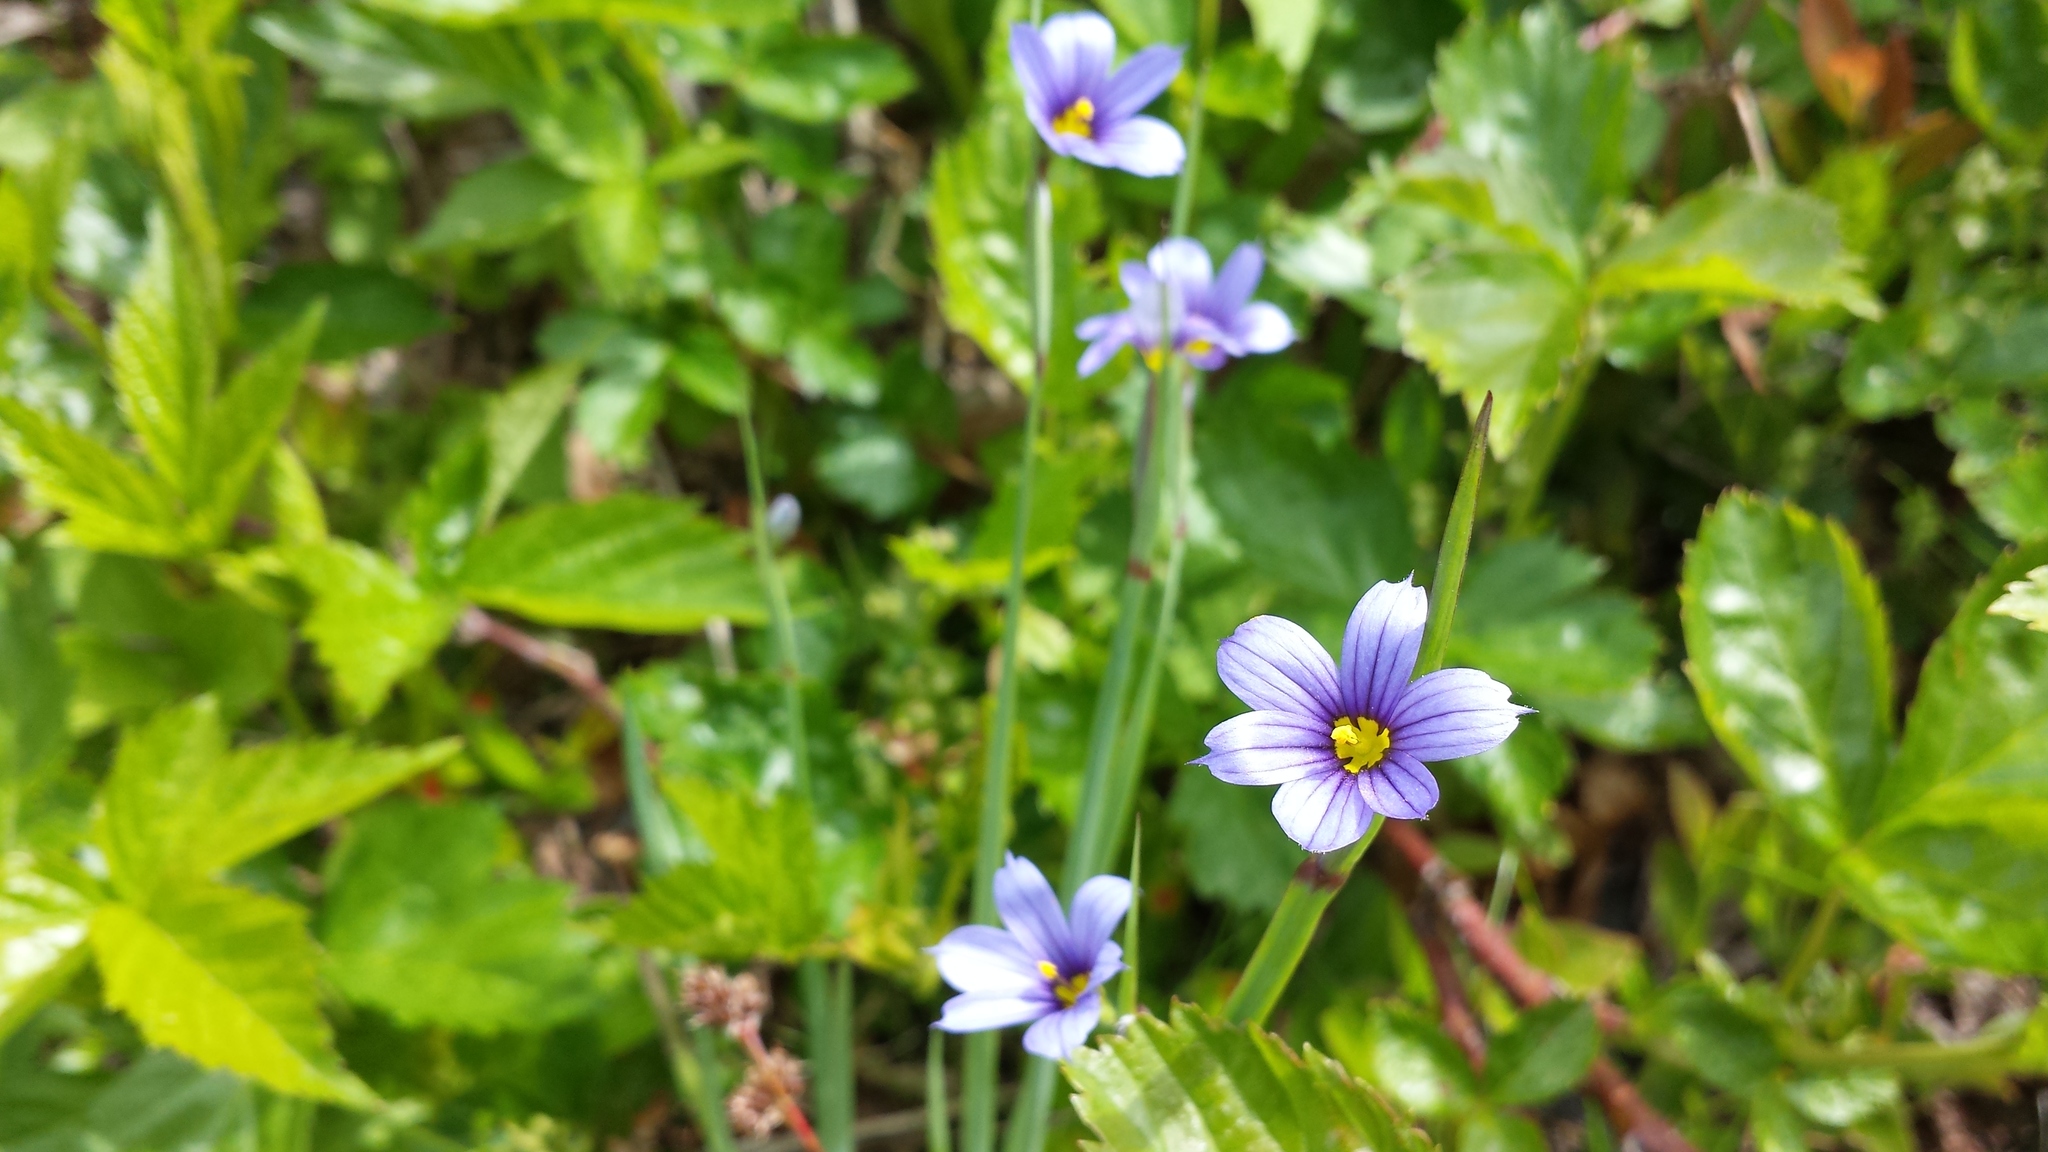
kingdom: Plantae
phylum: Tracheophyta
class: Liliopsida
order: Asparagales
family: Iridaceae
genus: Sisyrinchium
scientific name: Sisyrinchium montanum
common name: American blue-eyed-grass
